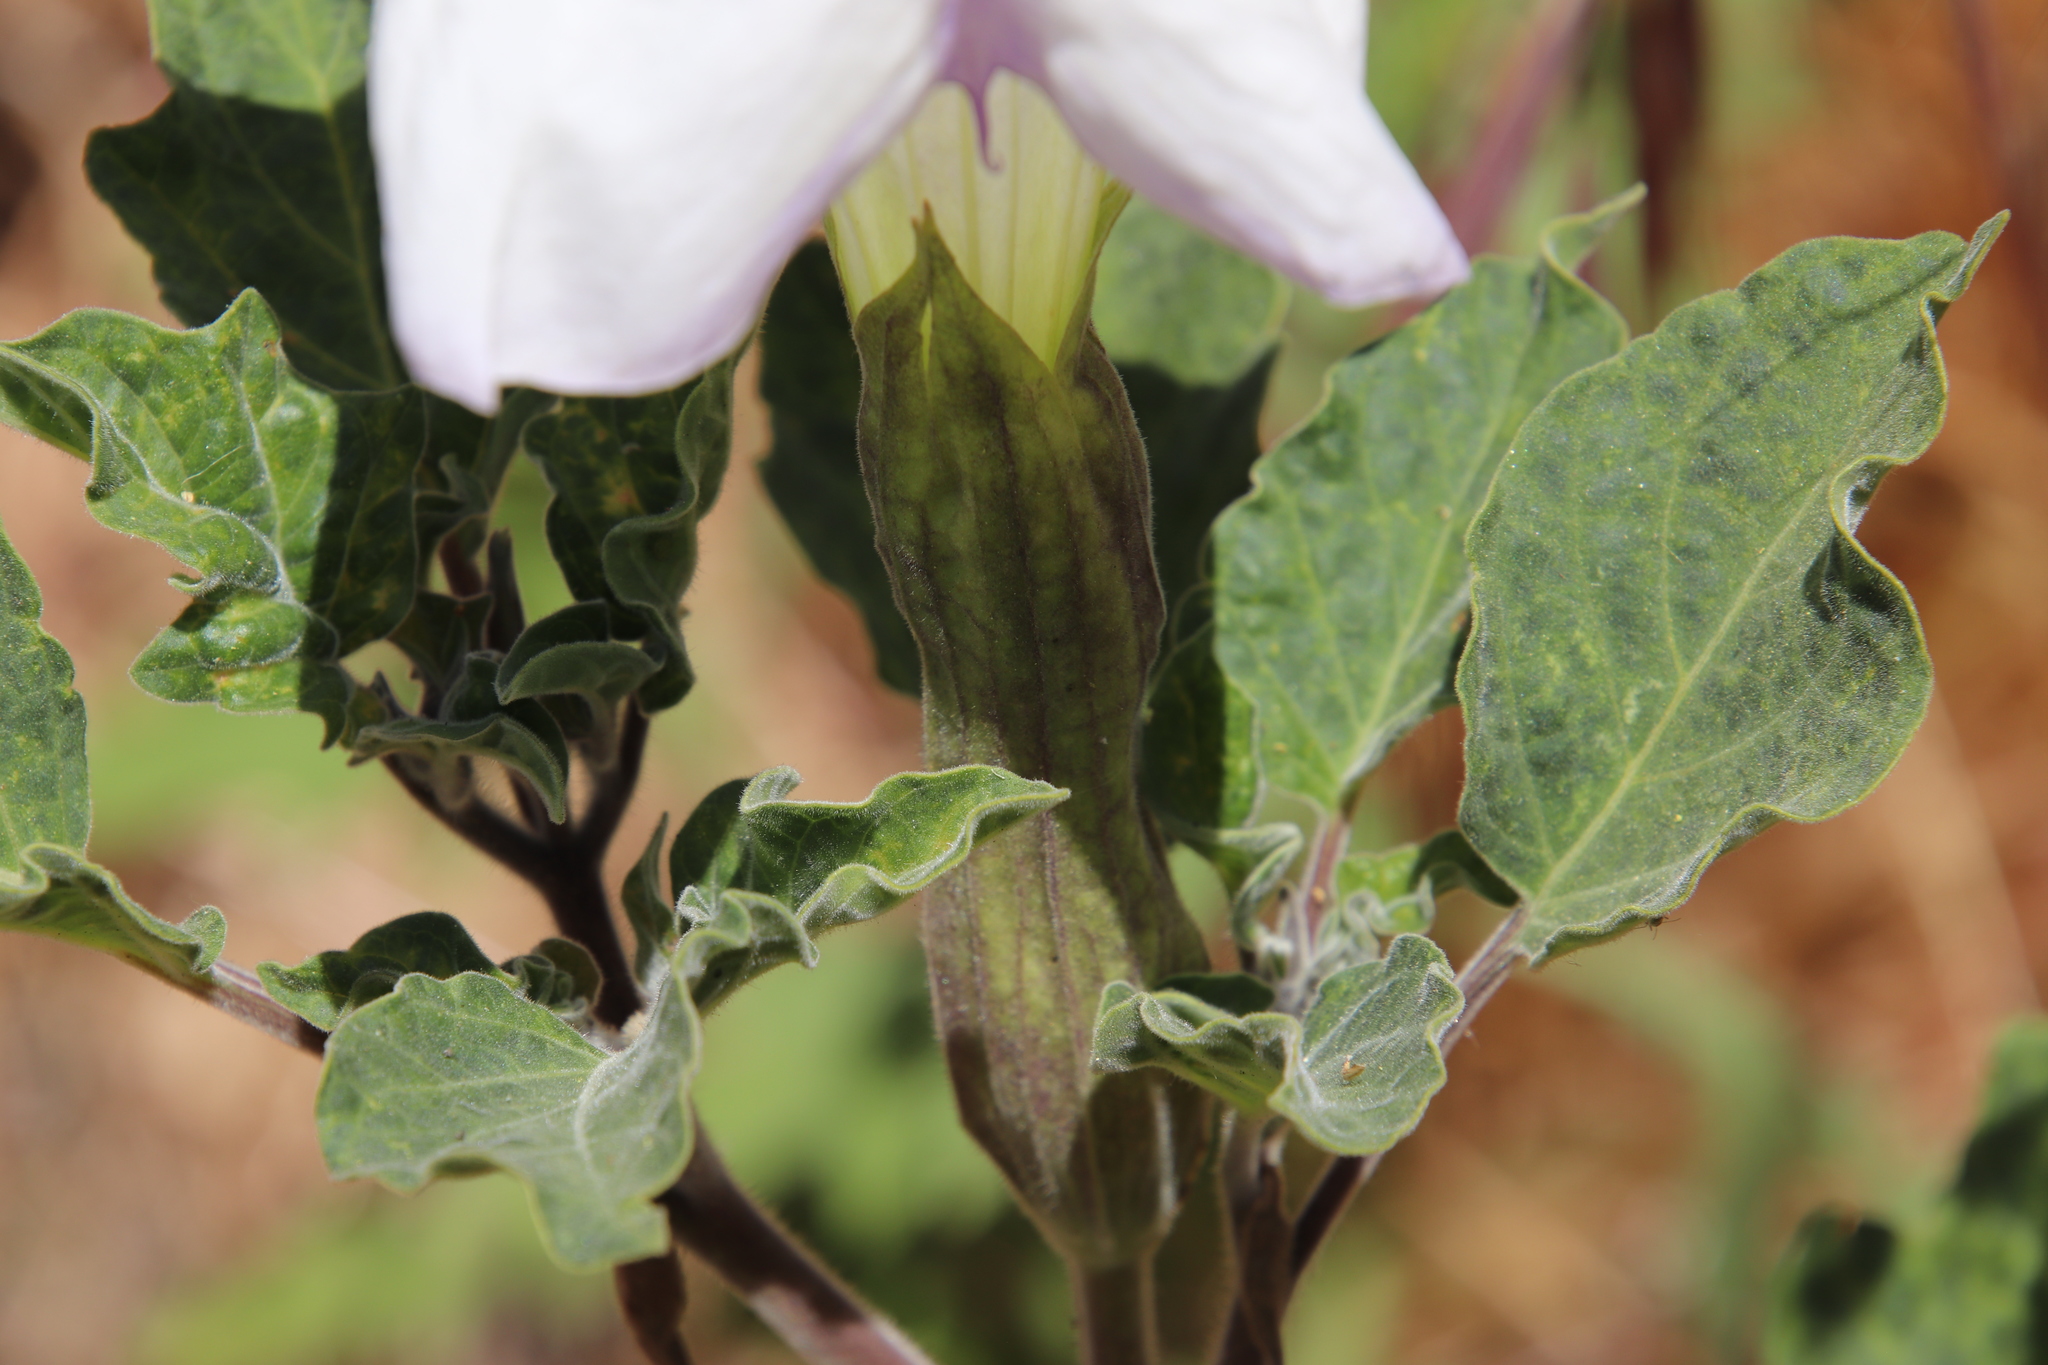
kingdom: Plantae
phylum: Tracheophyta
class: Magnoliopsida
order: Solanales
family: Solanaceae
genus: Datura
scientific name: Datura wrightii
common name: Sacred thorn-apple
